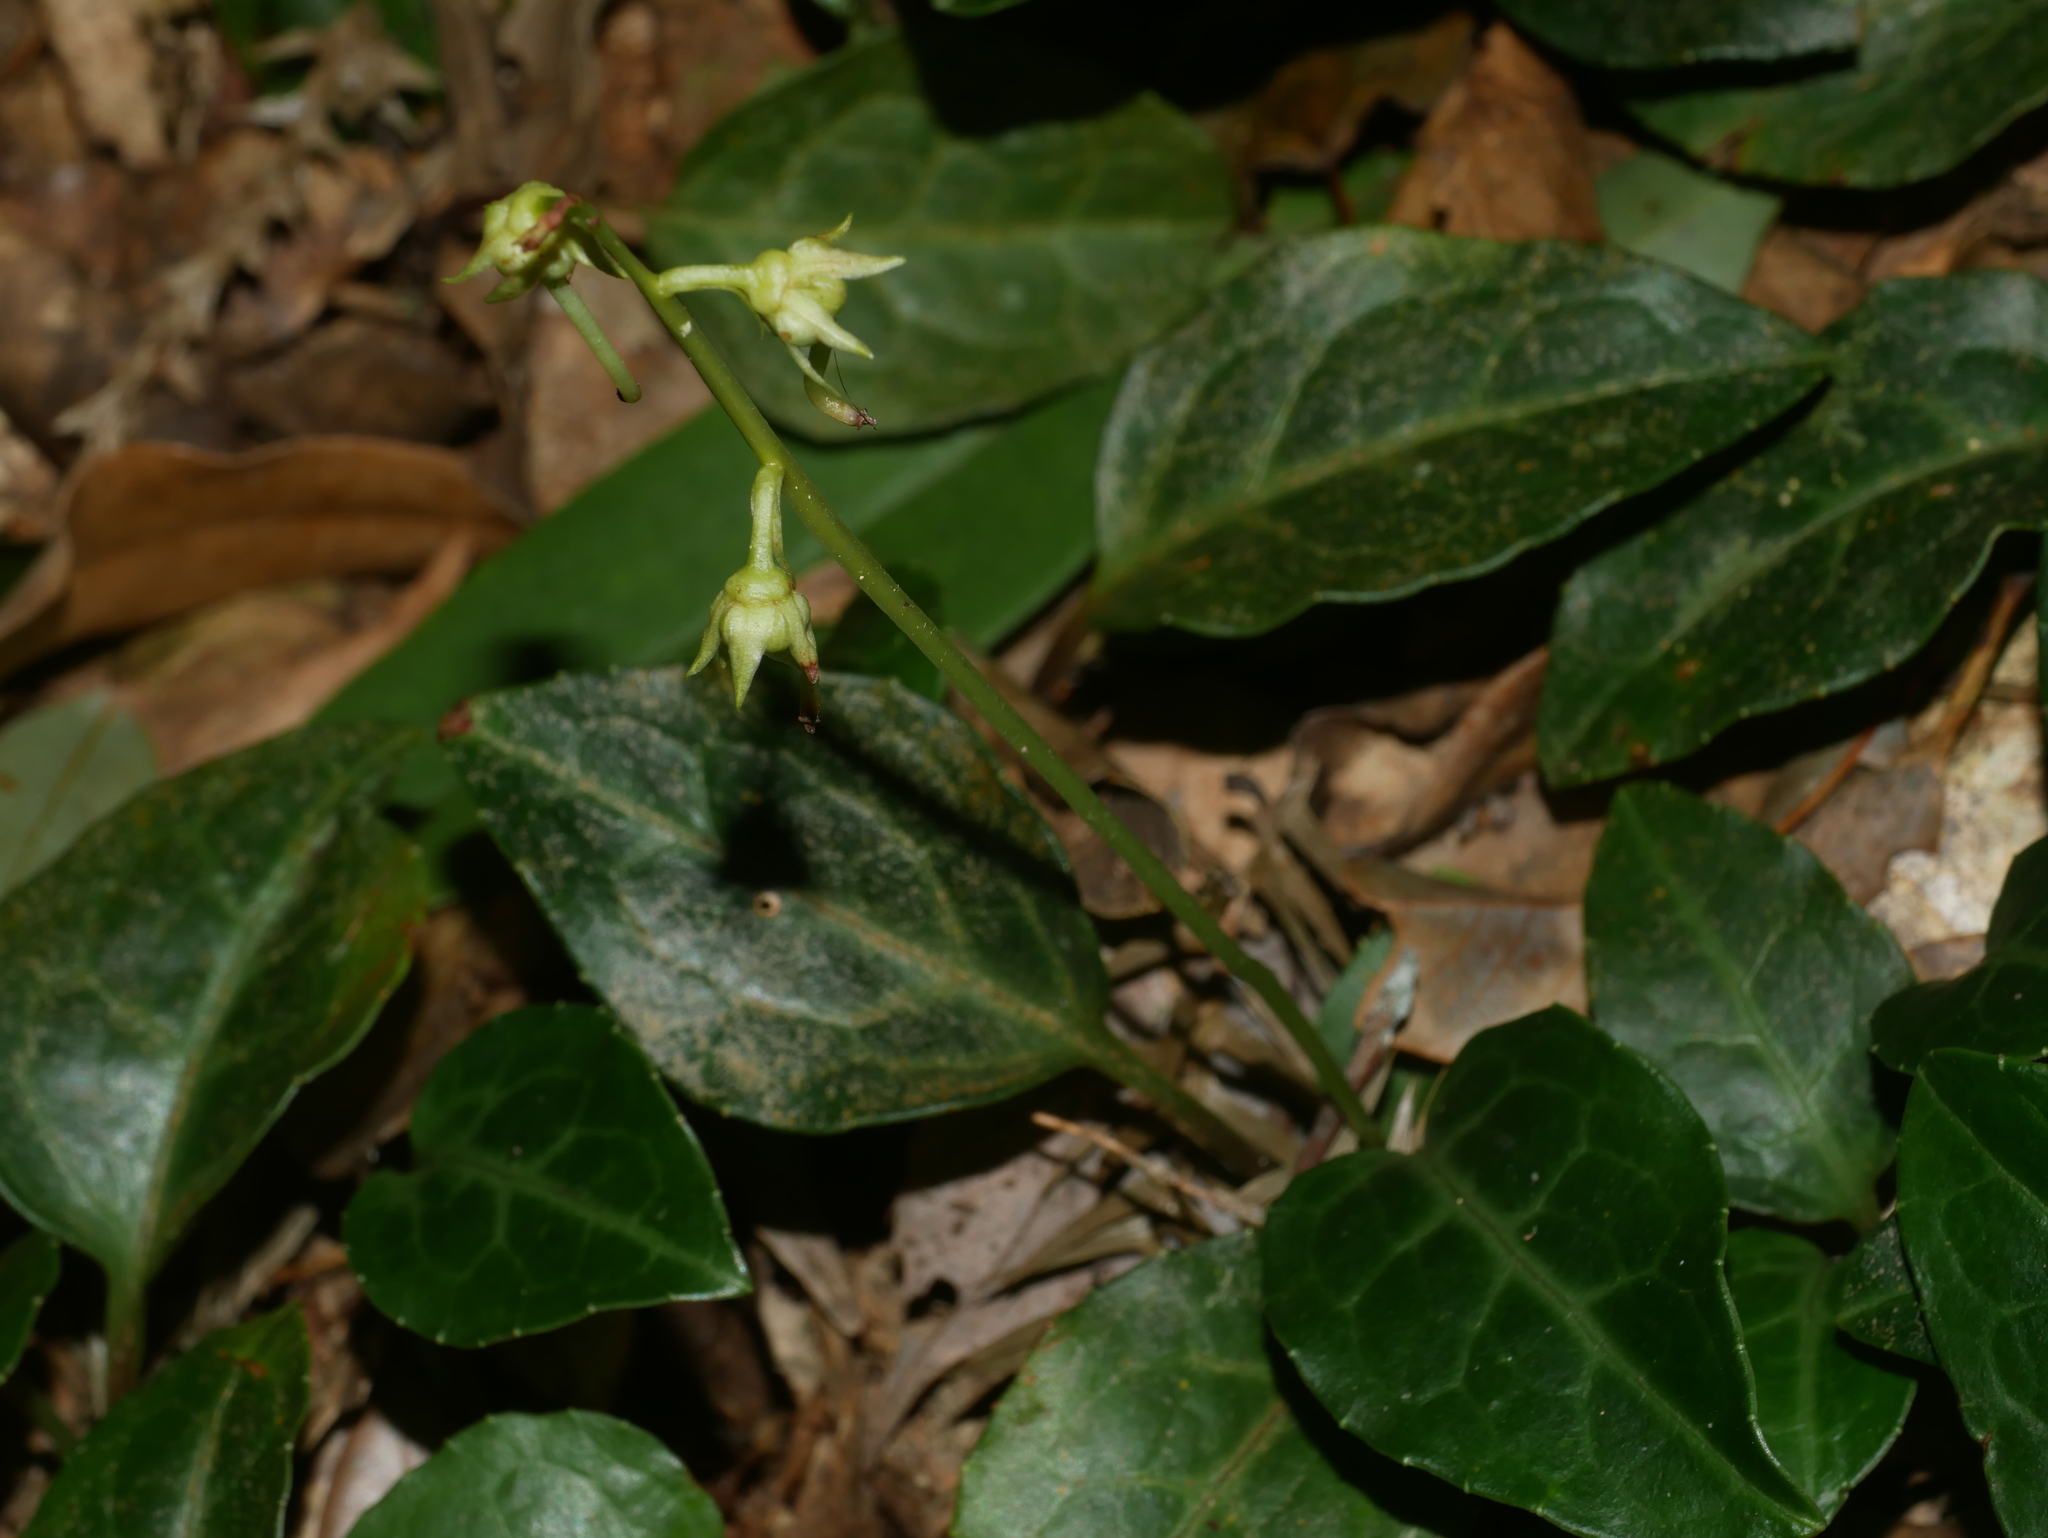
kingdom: Plantae
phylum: Tracheophyta
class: Magnoliopsida
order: Ericales
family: Ericaceae
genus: Pyrola
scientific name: Pyrola alboreticulata
